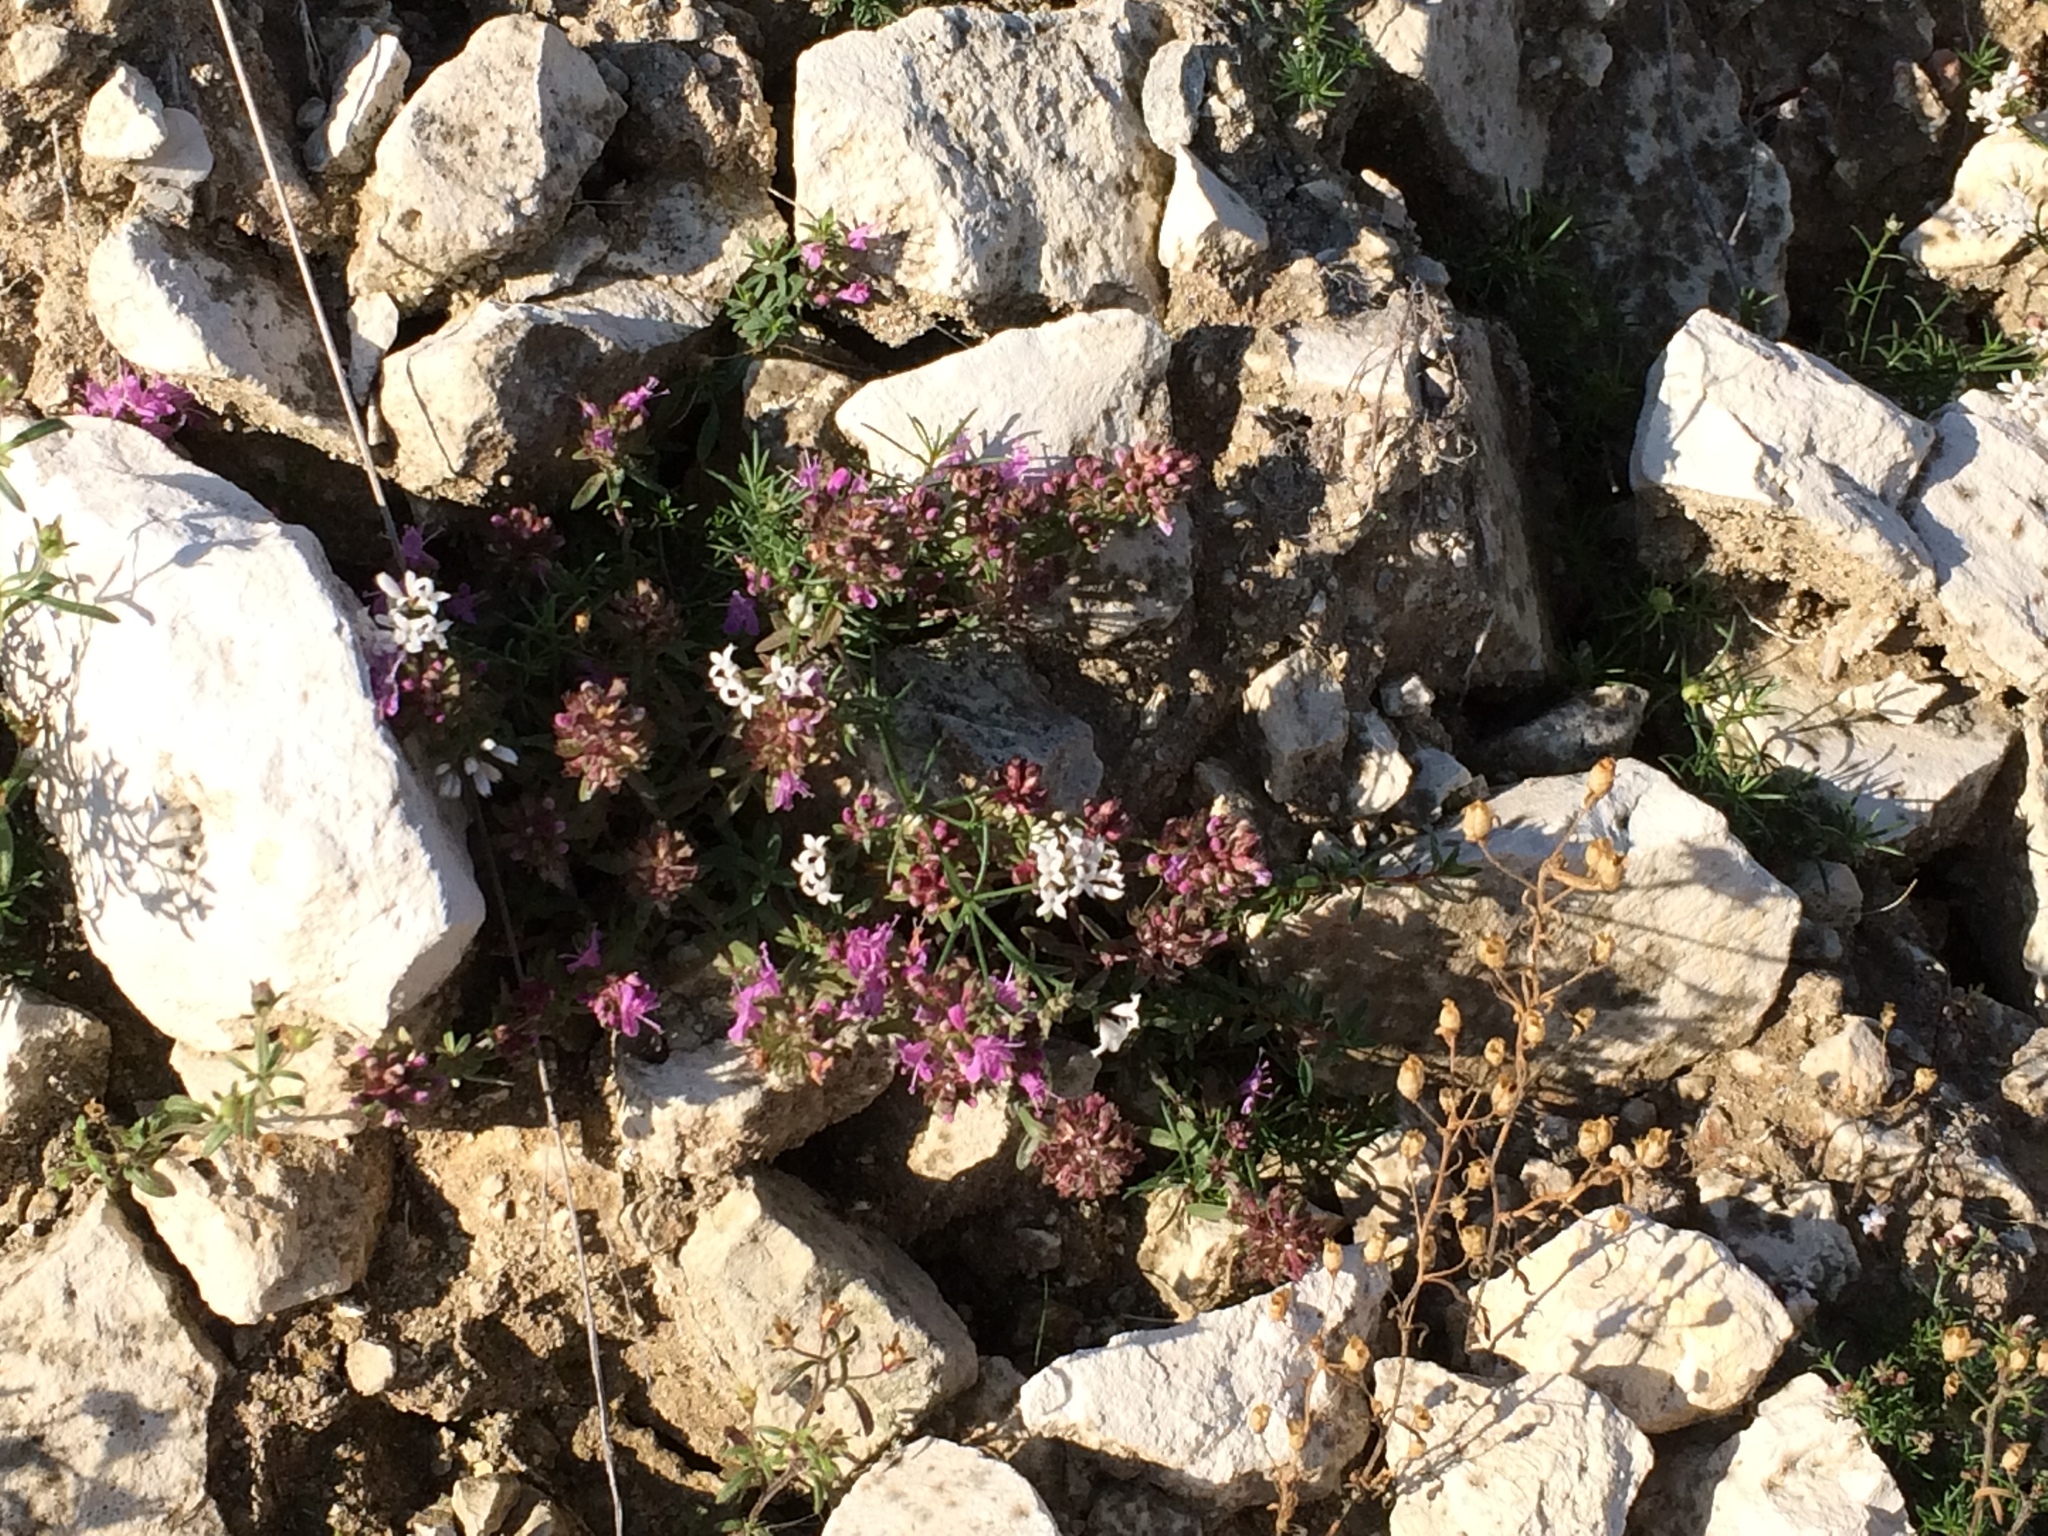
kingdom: Plantae
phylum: Tracheophyta
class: Magnoliopsida
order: Lamiales
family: Lamiaceae
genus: Thymus
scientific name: Thymus calcareus
